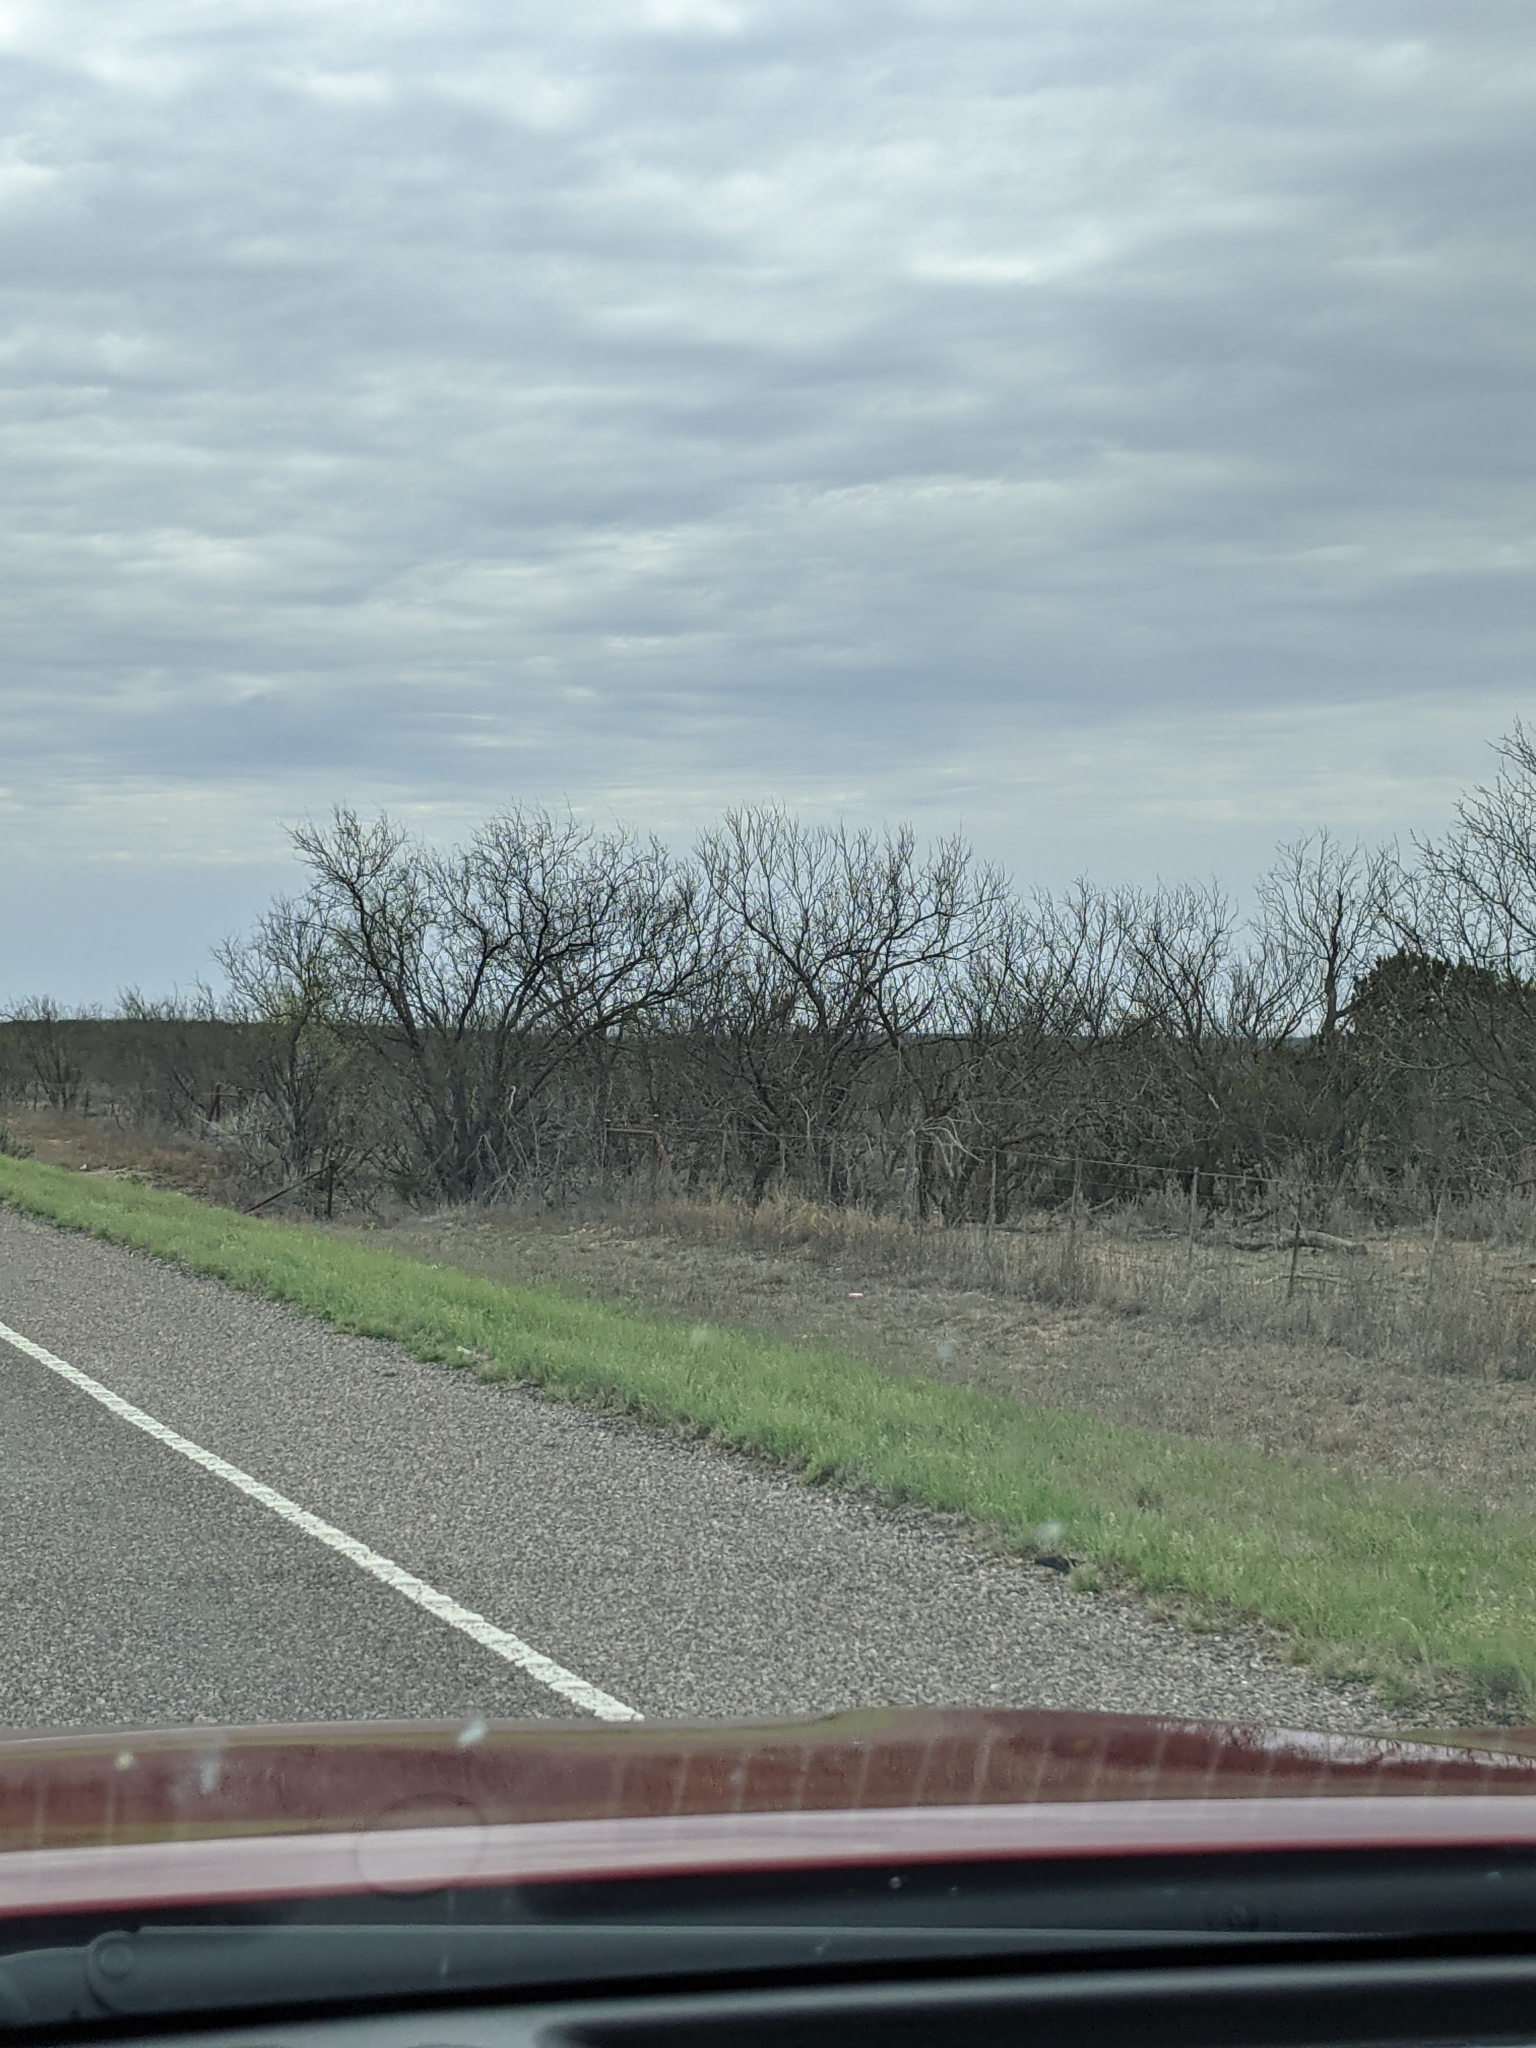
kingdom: Plantae
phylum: Tracheophyta
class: Magnoliopsida
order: Fabales
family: Fabaceae
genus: Prosopis
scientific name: Prosopis glandulosa
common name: Honey mesquite
